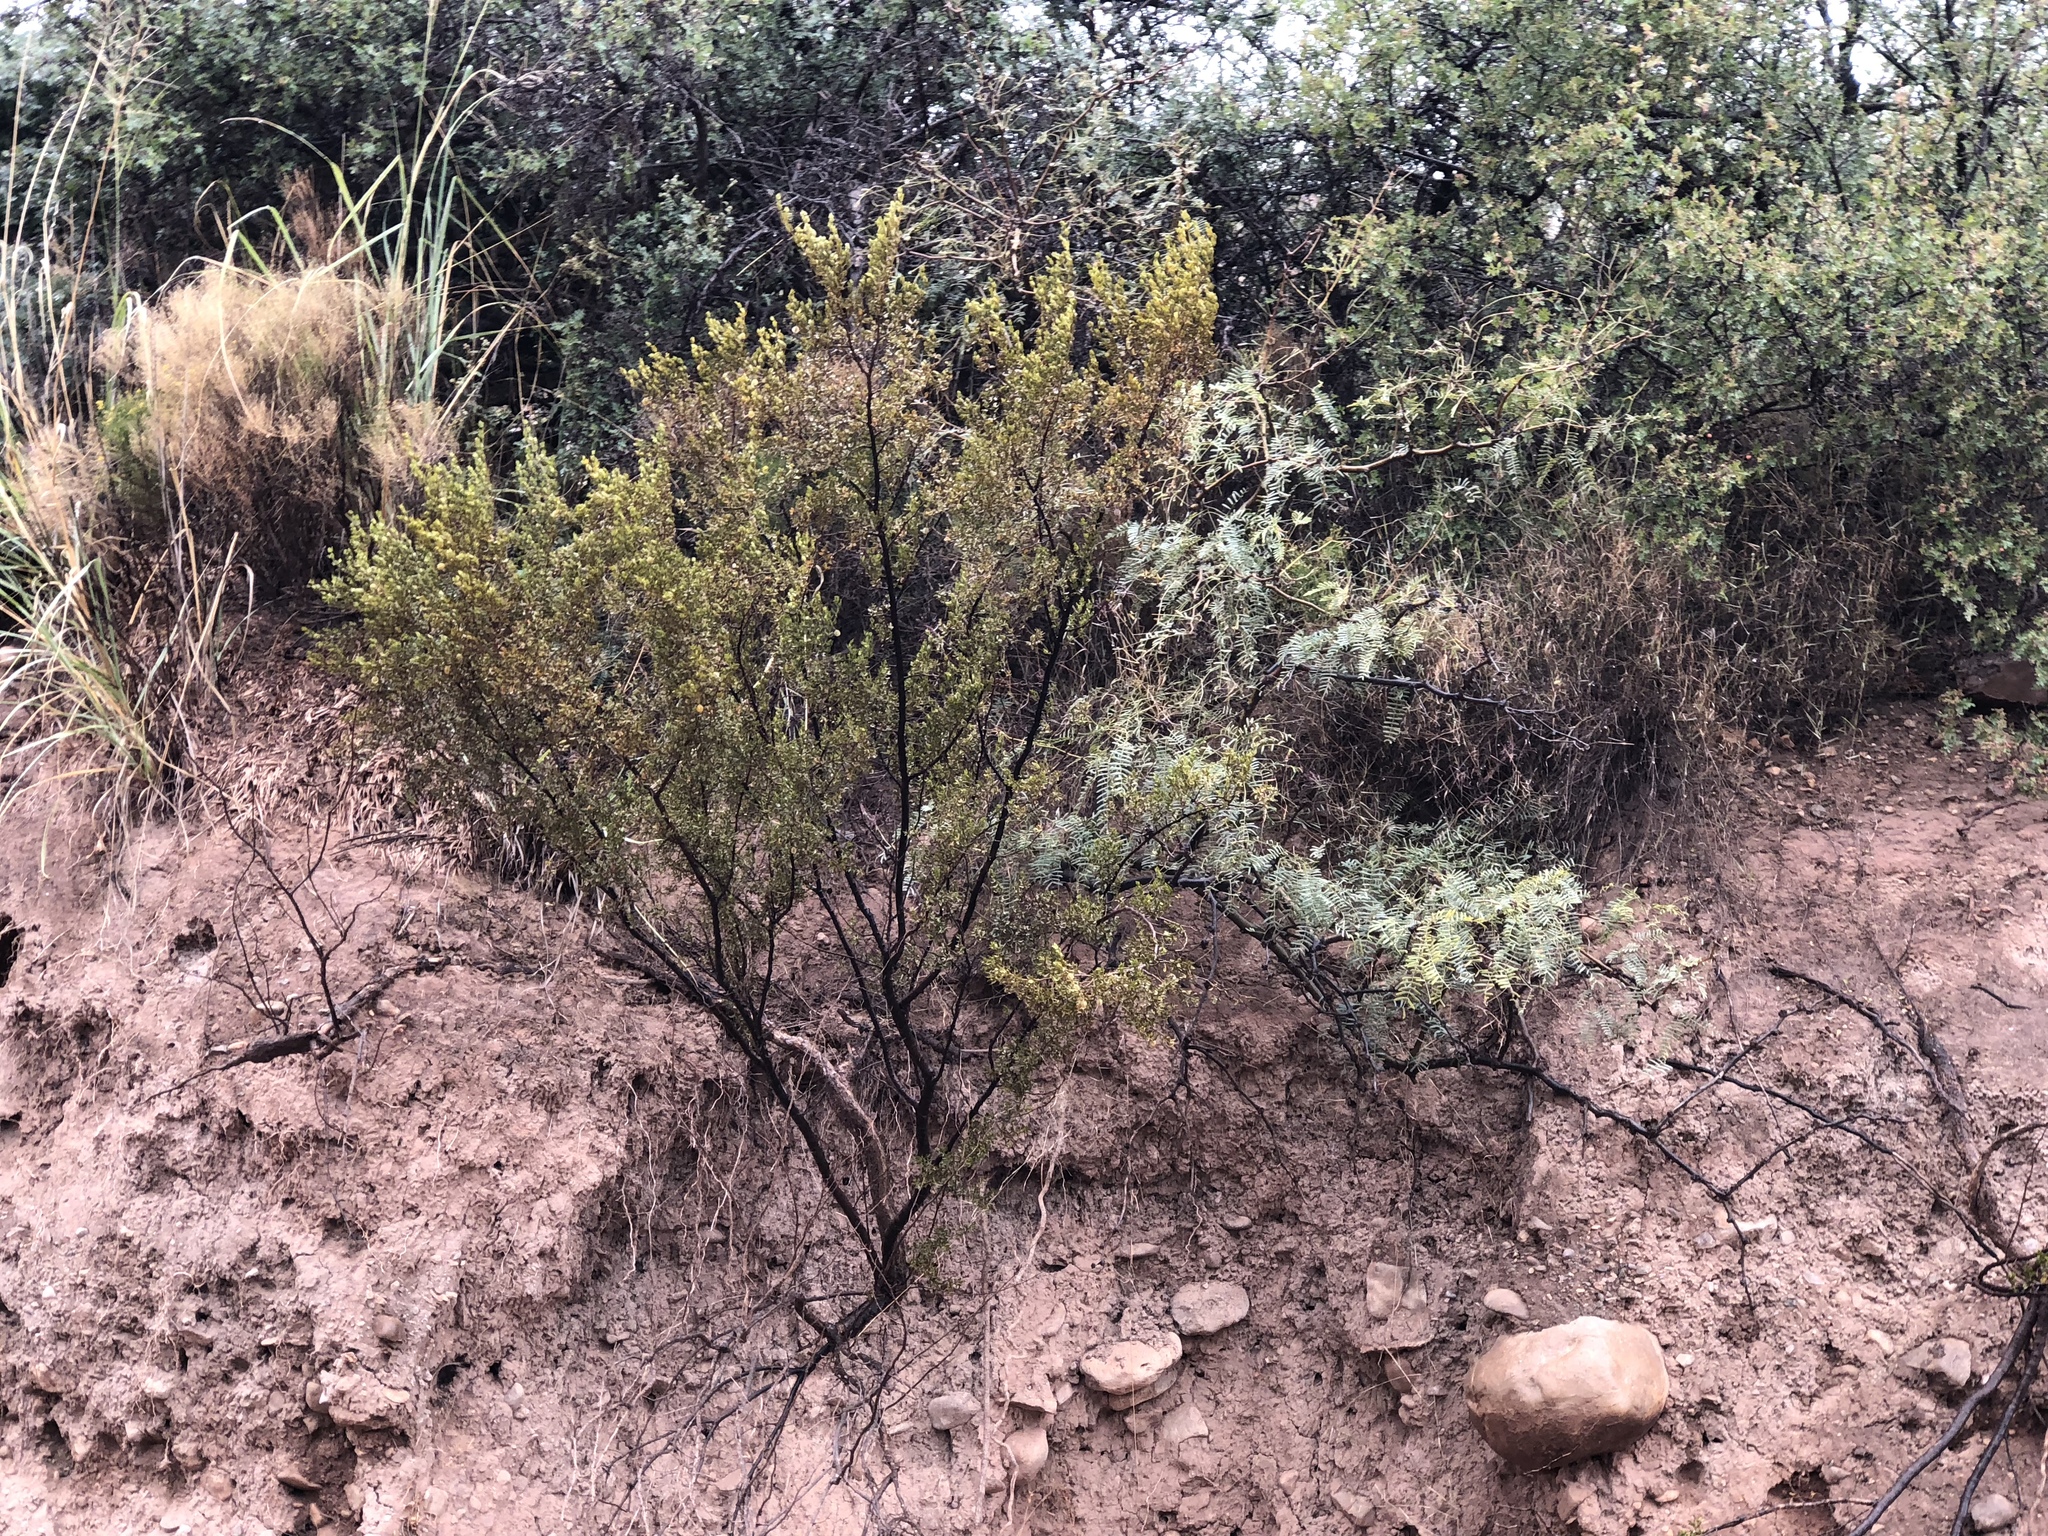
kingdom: Plantae
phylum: Tracheophyta
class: Magnoliopsida
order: Zygophyllales
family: Zygophyllaceae
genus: Larrea
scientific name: Larrea tridentata
